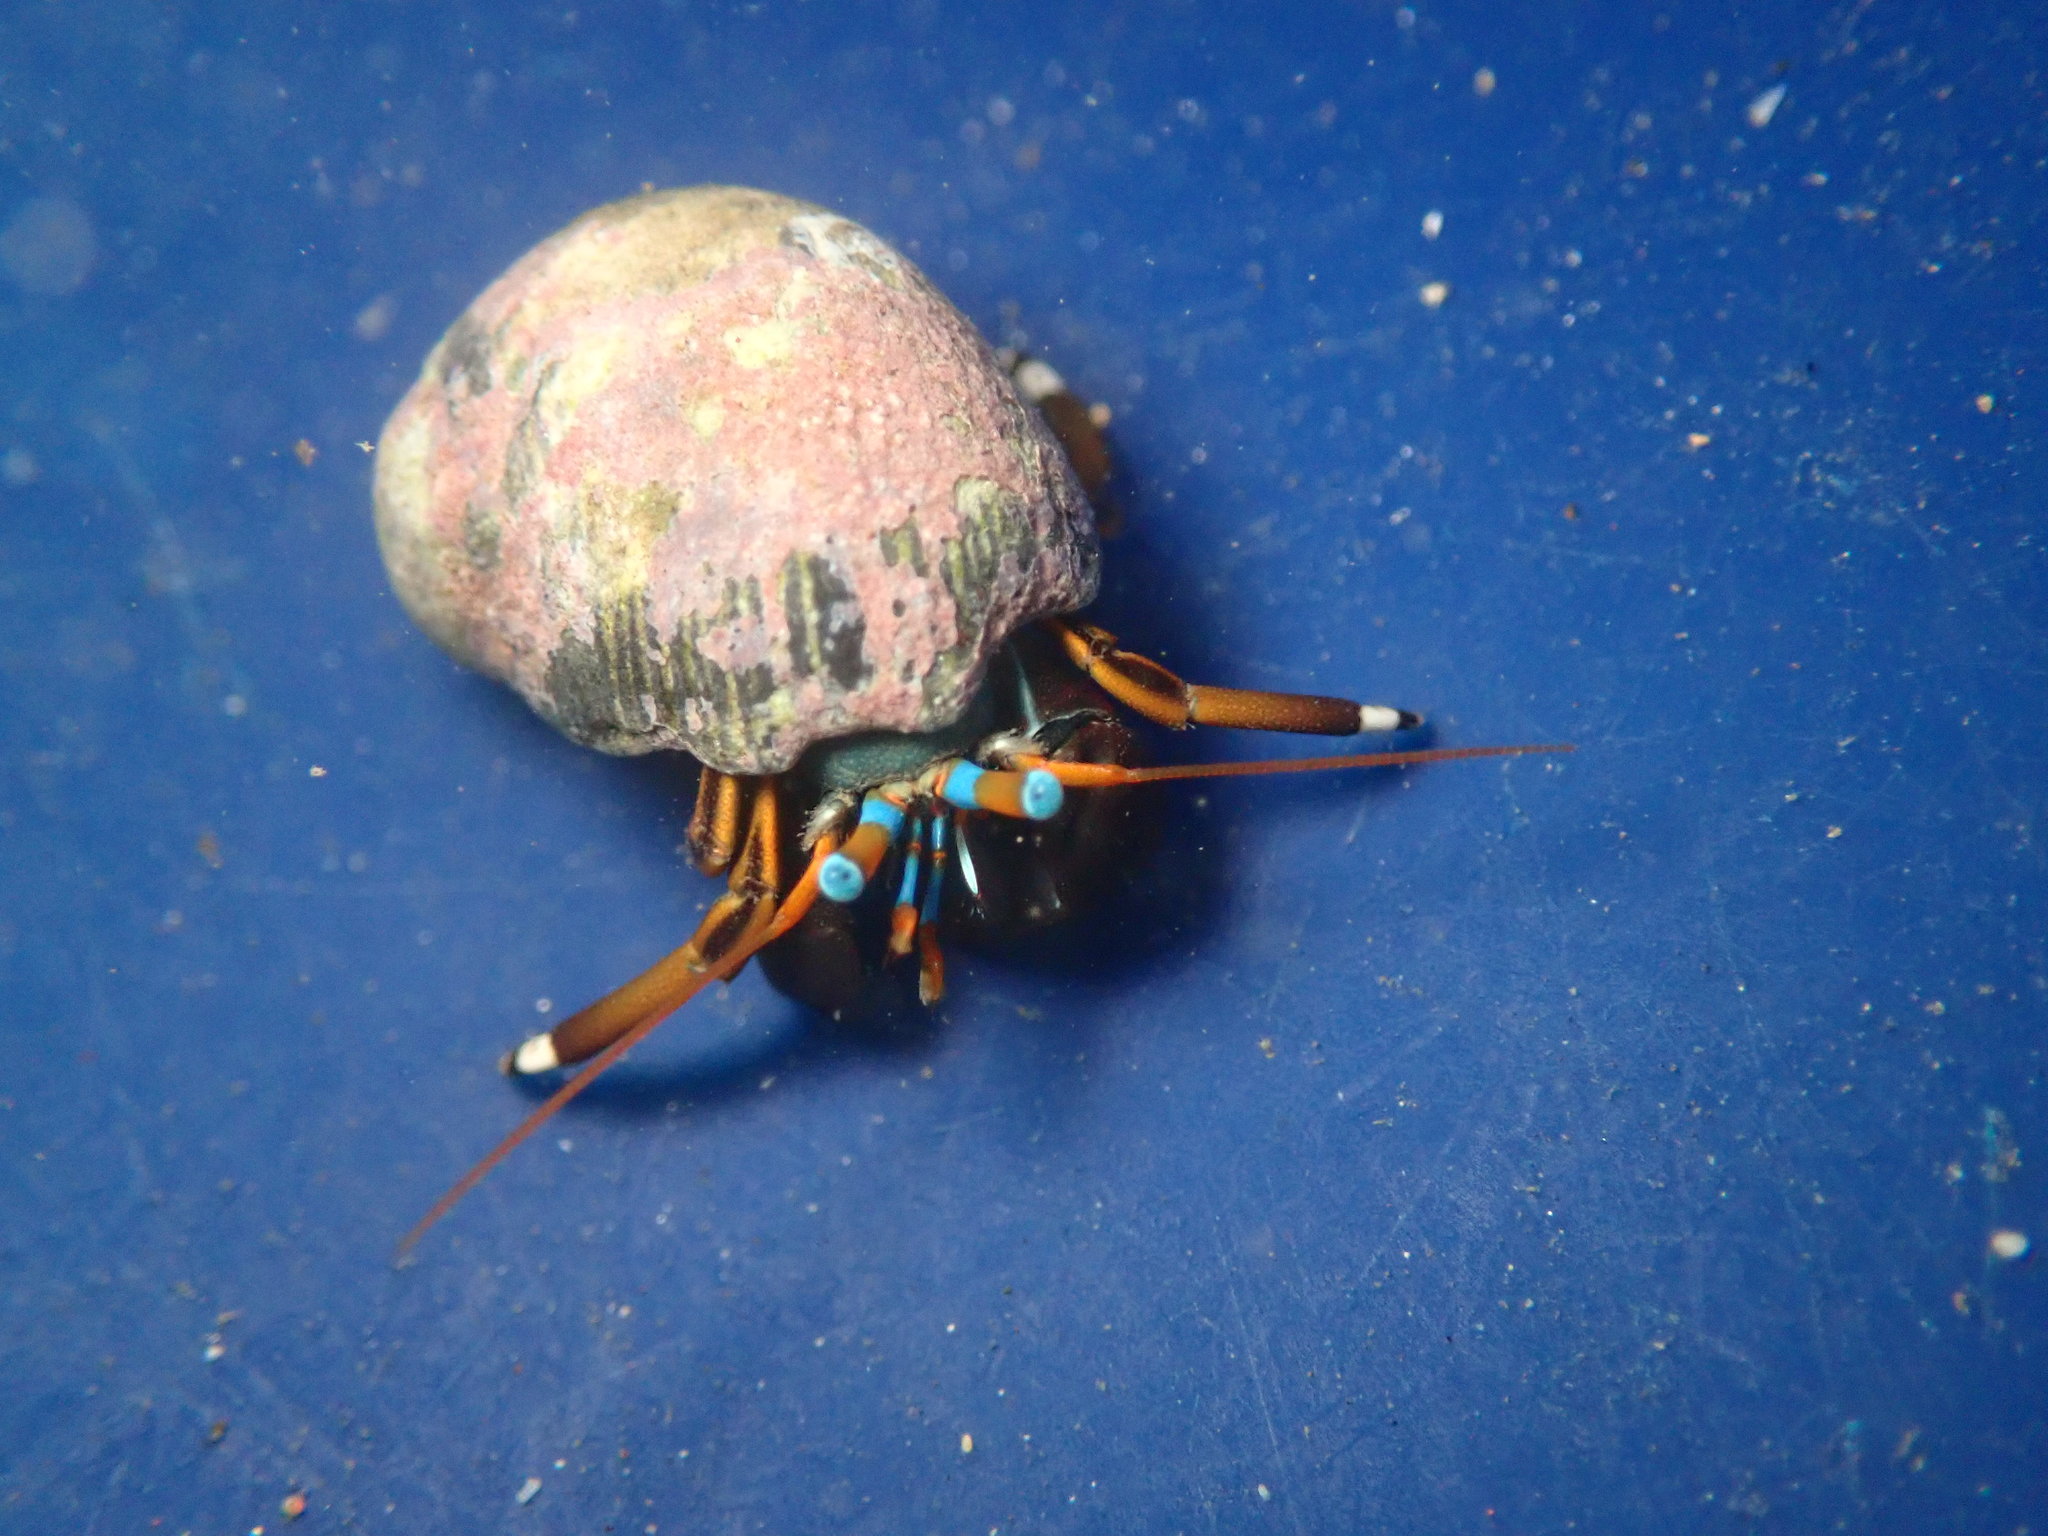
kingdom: Animalia
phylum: Arthropoda
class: Malacostraca
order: Decapoda
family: Diogenidae
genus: Calcinus
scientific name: Calcinus laevimanus
